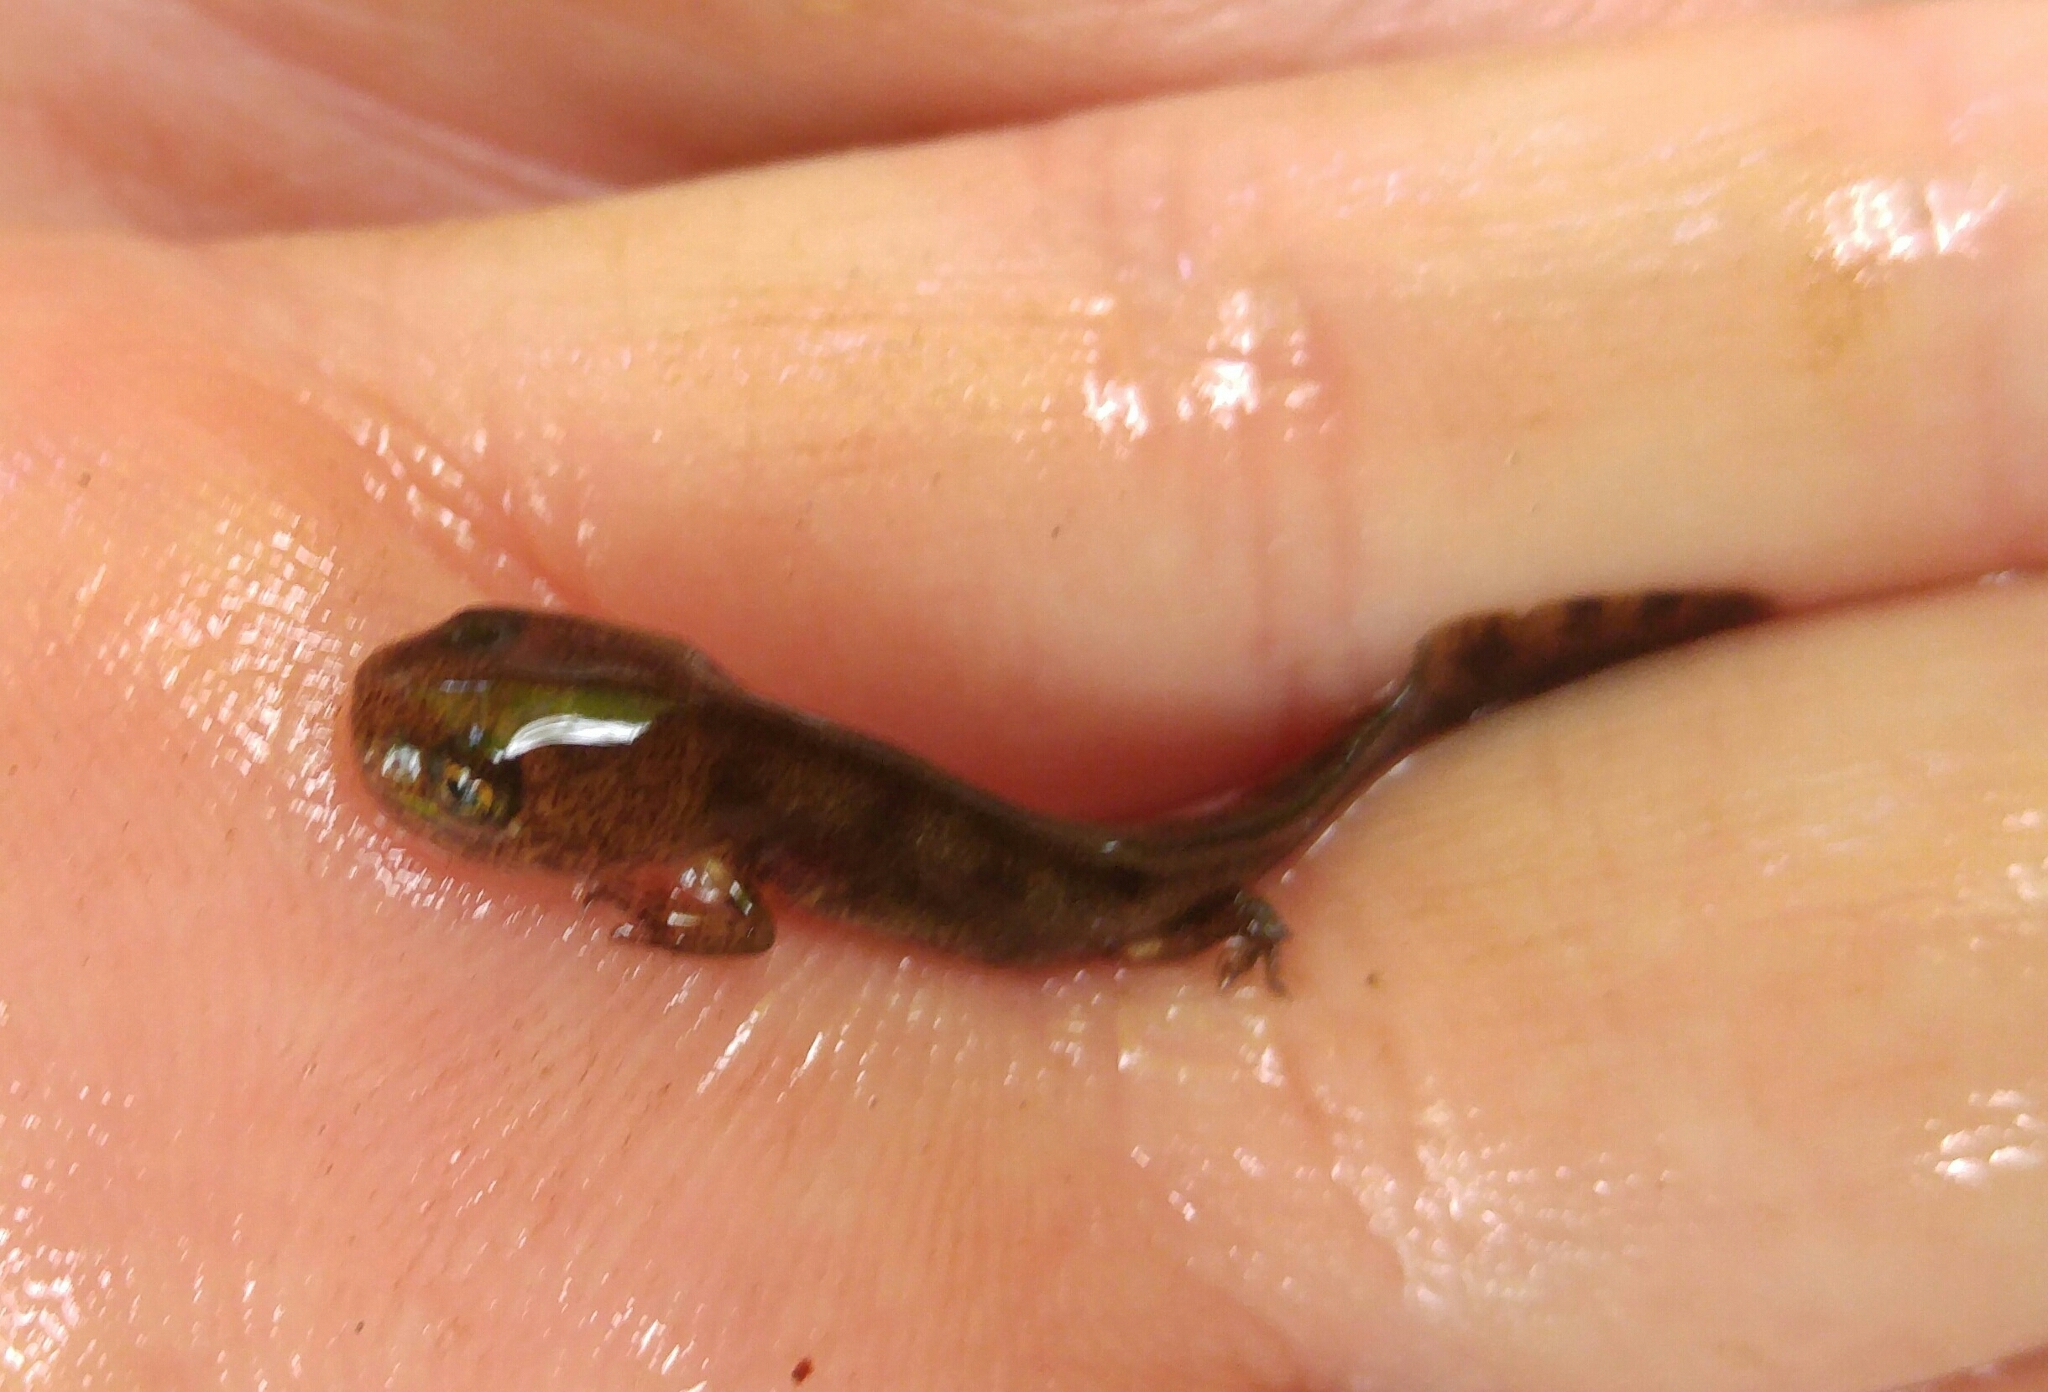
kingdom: Animalia
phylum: Chordata
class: Amphibia
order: Caudata
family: Salamandridae
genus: Salamandra
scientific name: Salamandra salamandra
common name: Fire salamander
